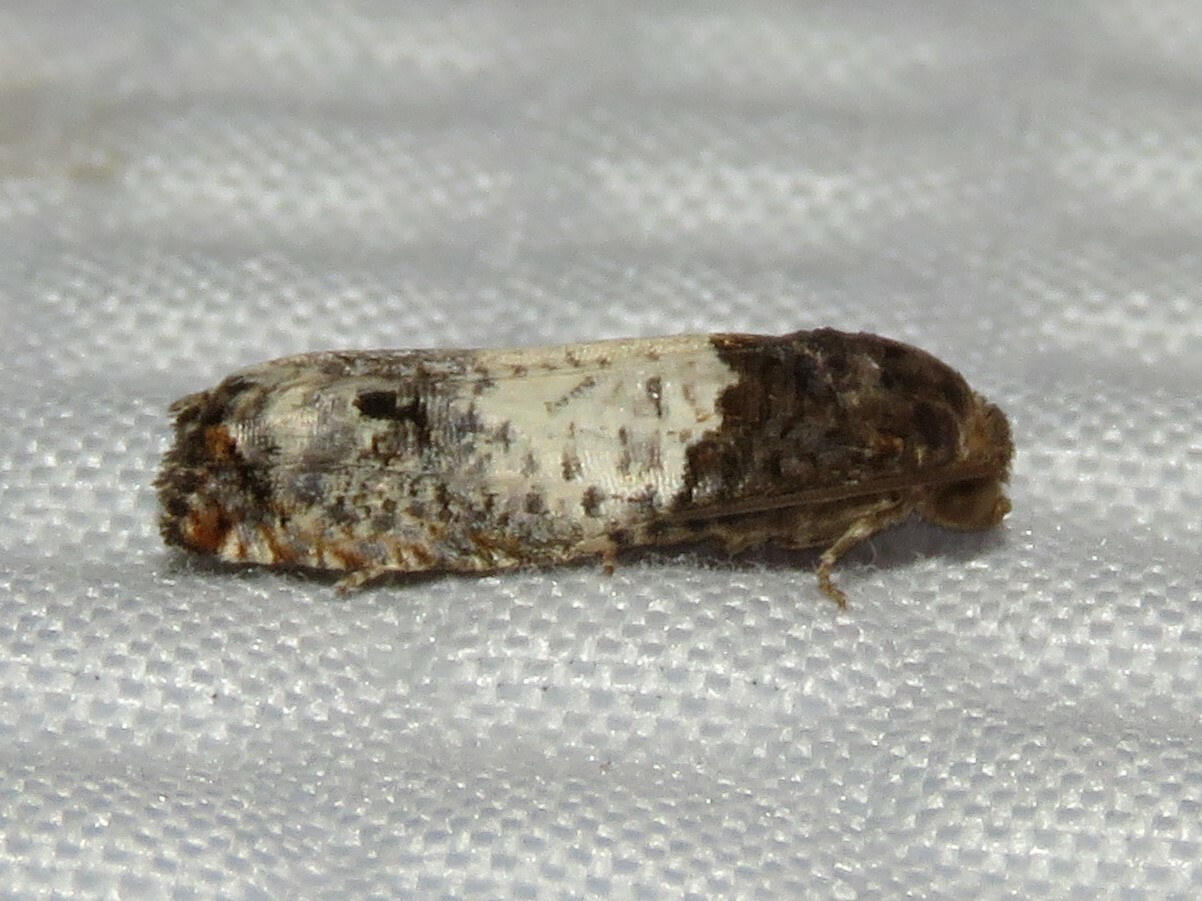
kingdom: Animalia
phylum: Arthropoda
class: Insecta
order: Lepidoptera
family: Tortricidae
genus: Epiblema
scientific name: Epiblema scudderiana
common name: Goldenrod gall moth
